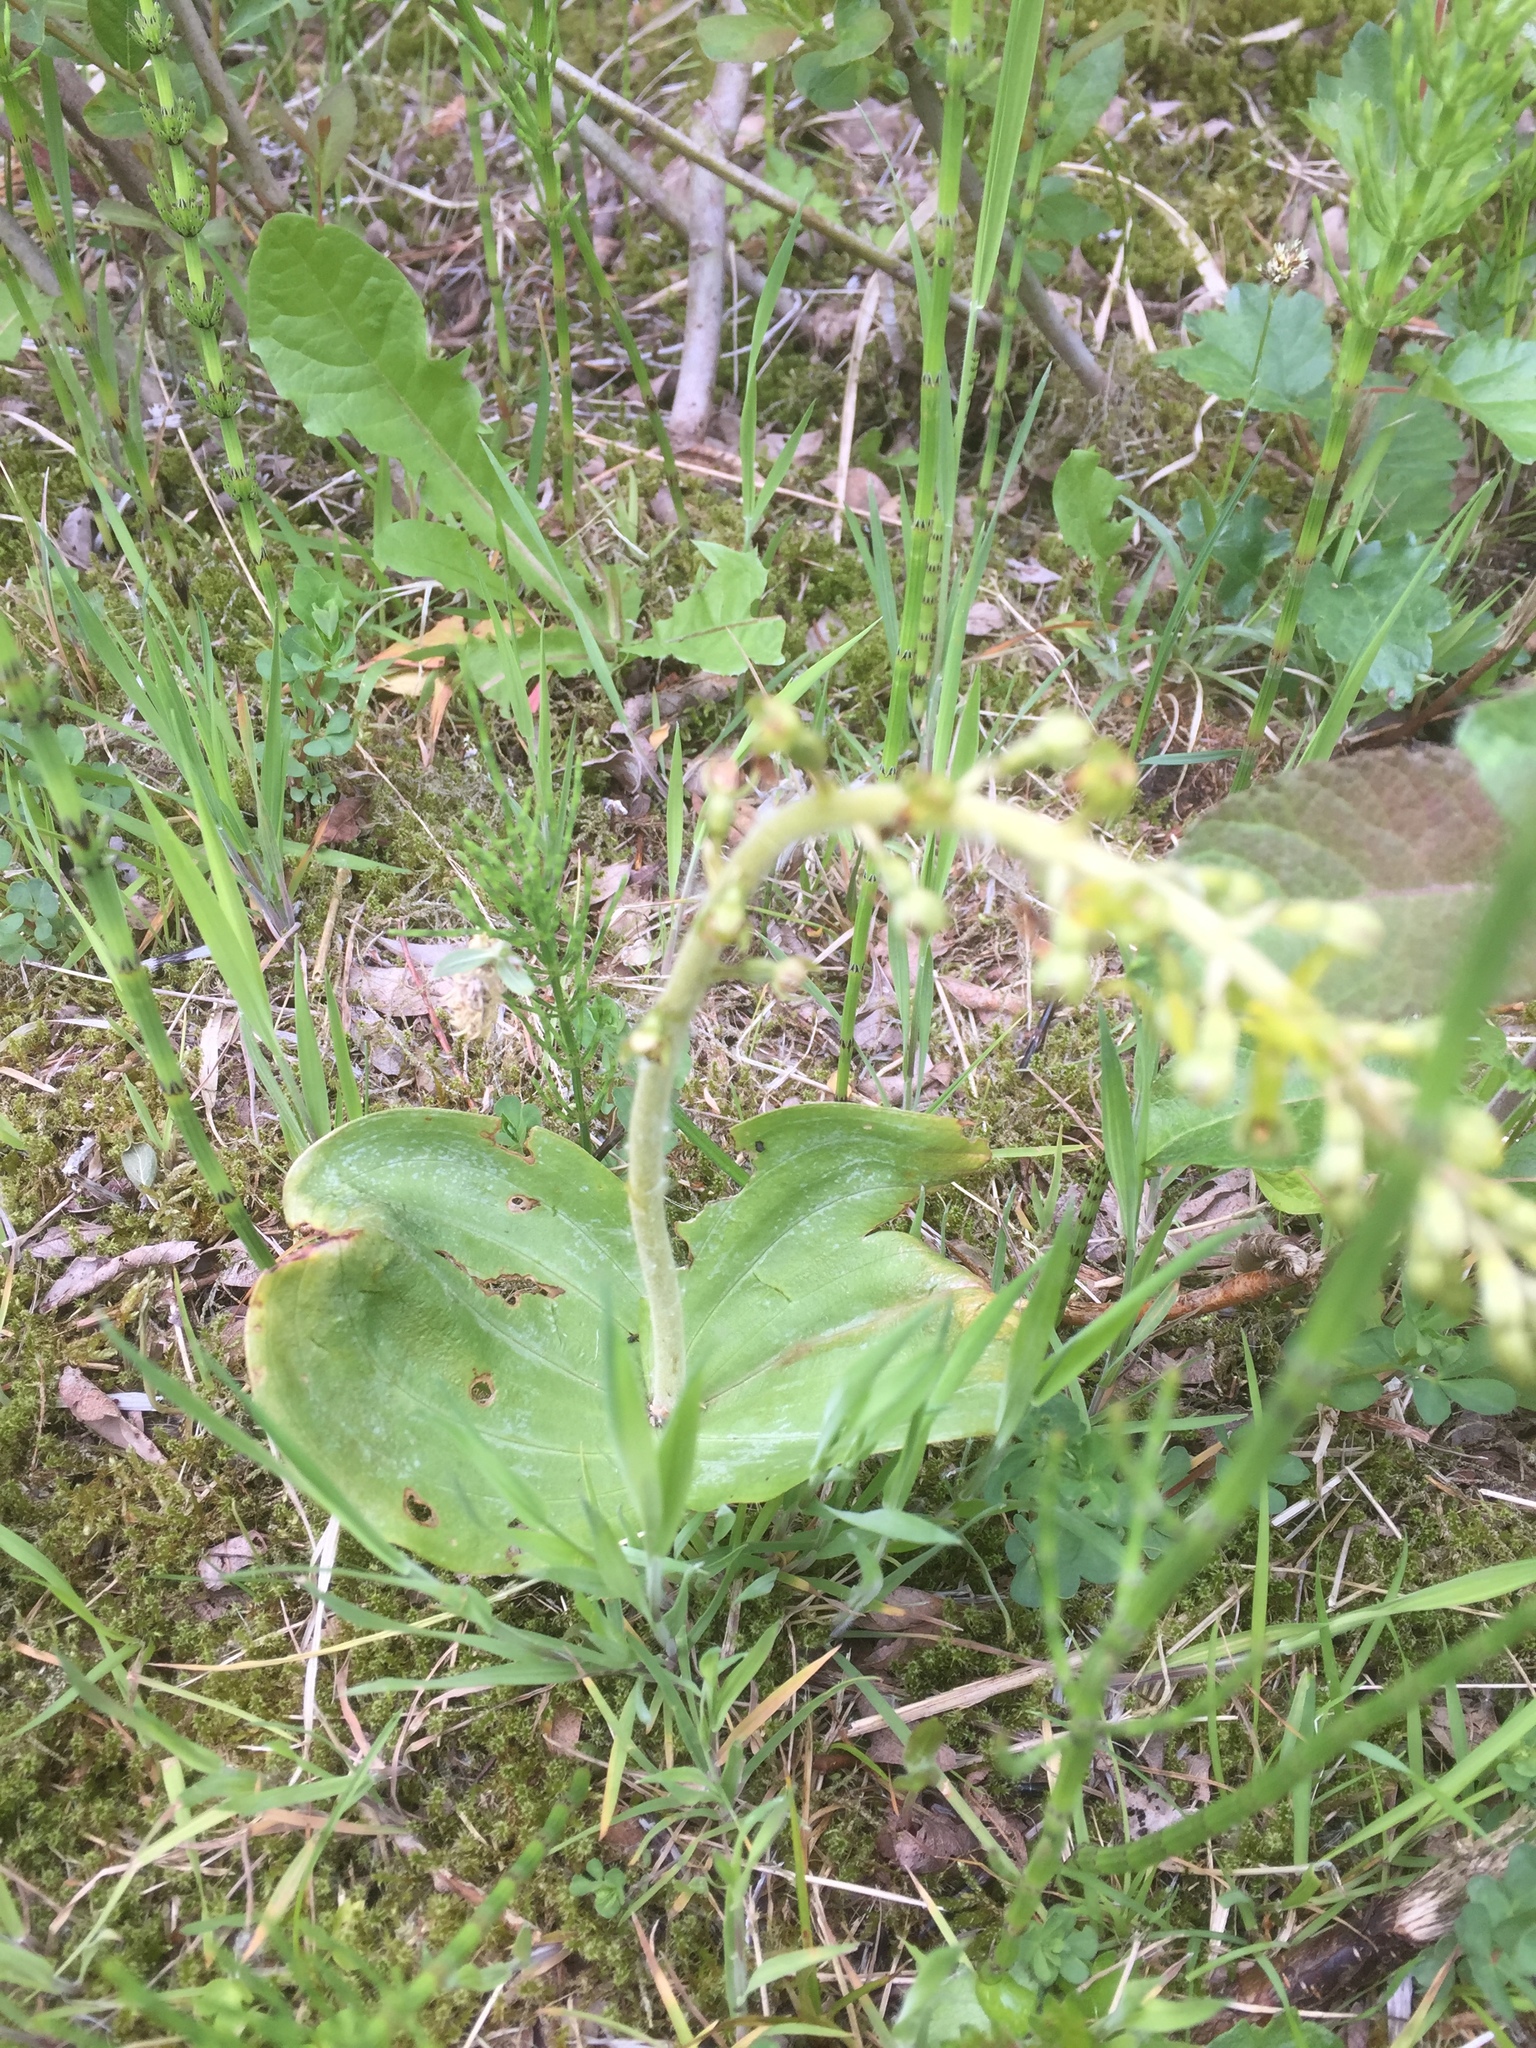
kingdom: Plantae
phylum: Tracheophyta
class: Liliopsida
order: Asparagales
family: Orchidaceae
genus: Neottia
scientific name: Neottia ovata
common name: Common twayblade
